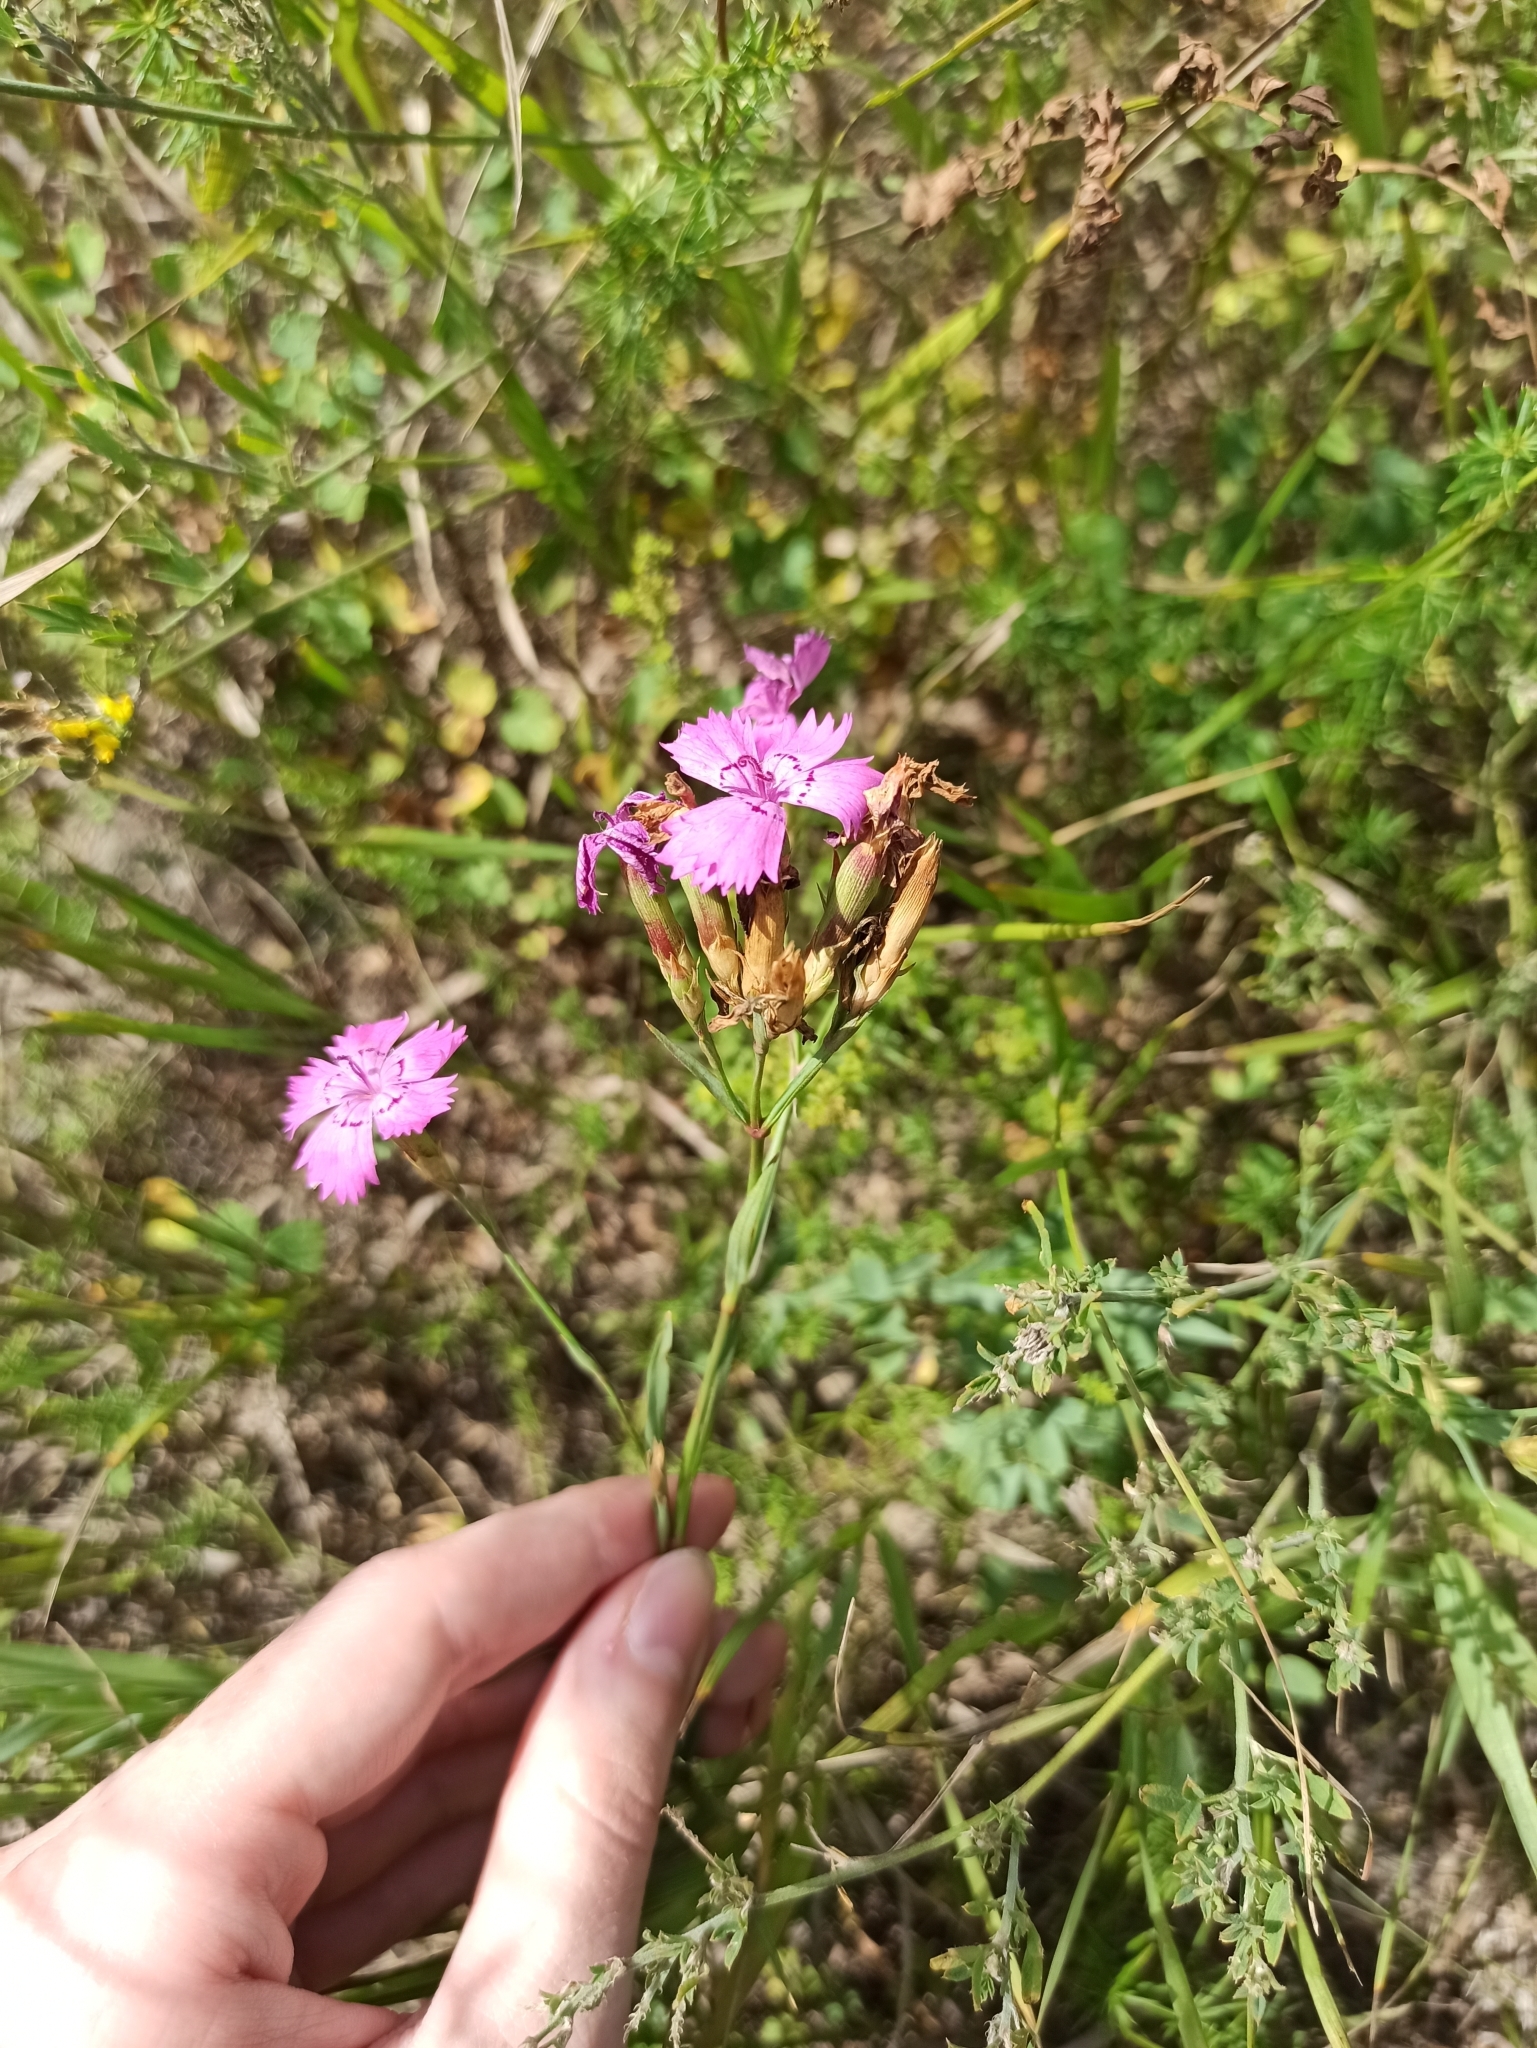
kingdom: Plantae
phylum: Tracheophyta
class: Magnoliopsida
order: Caryophyllales
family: Caryophyllaceae
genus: Dianthus
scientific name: Dianthus chinensis
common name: Rainbow pink
